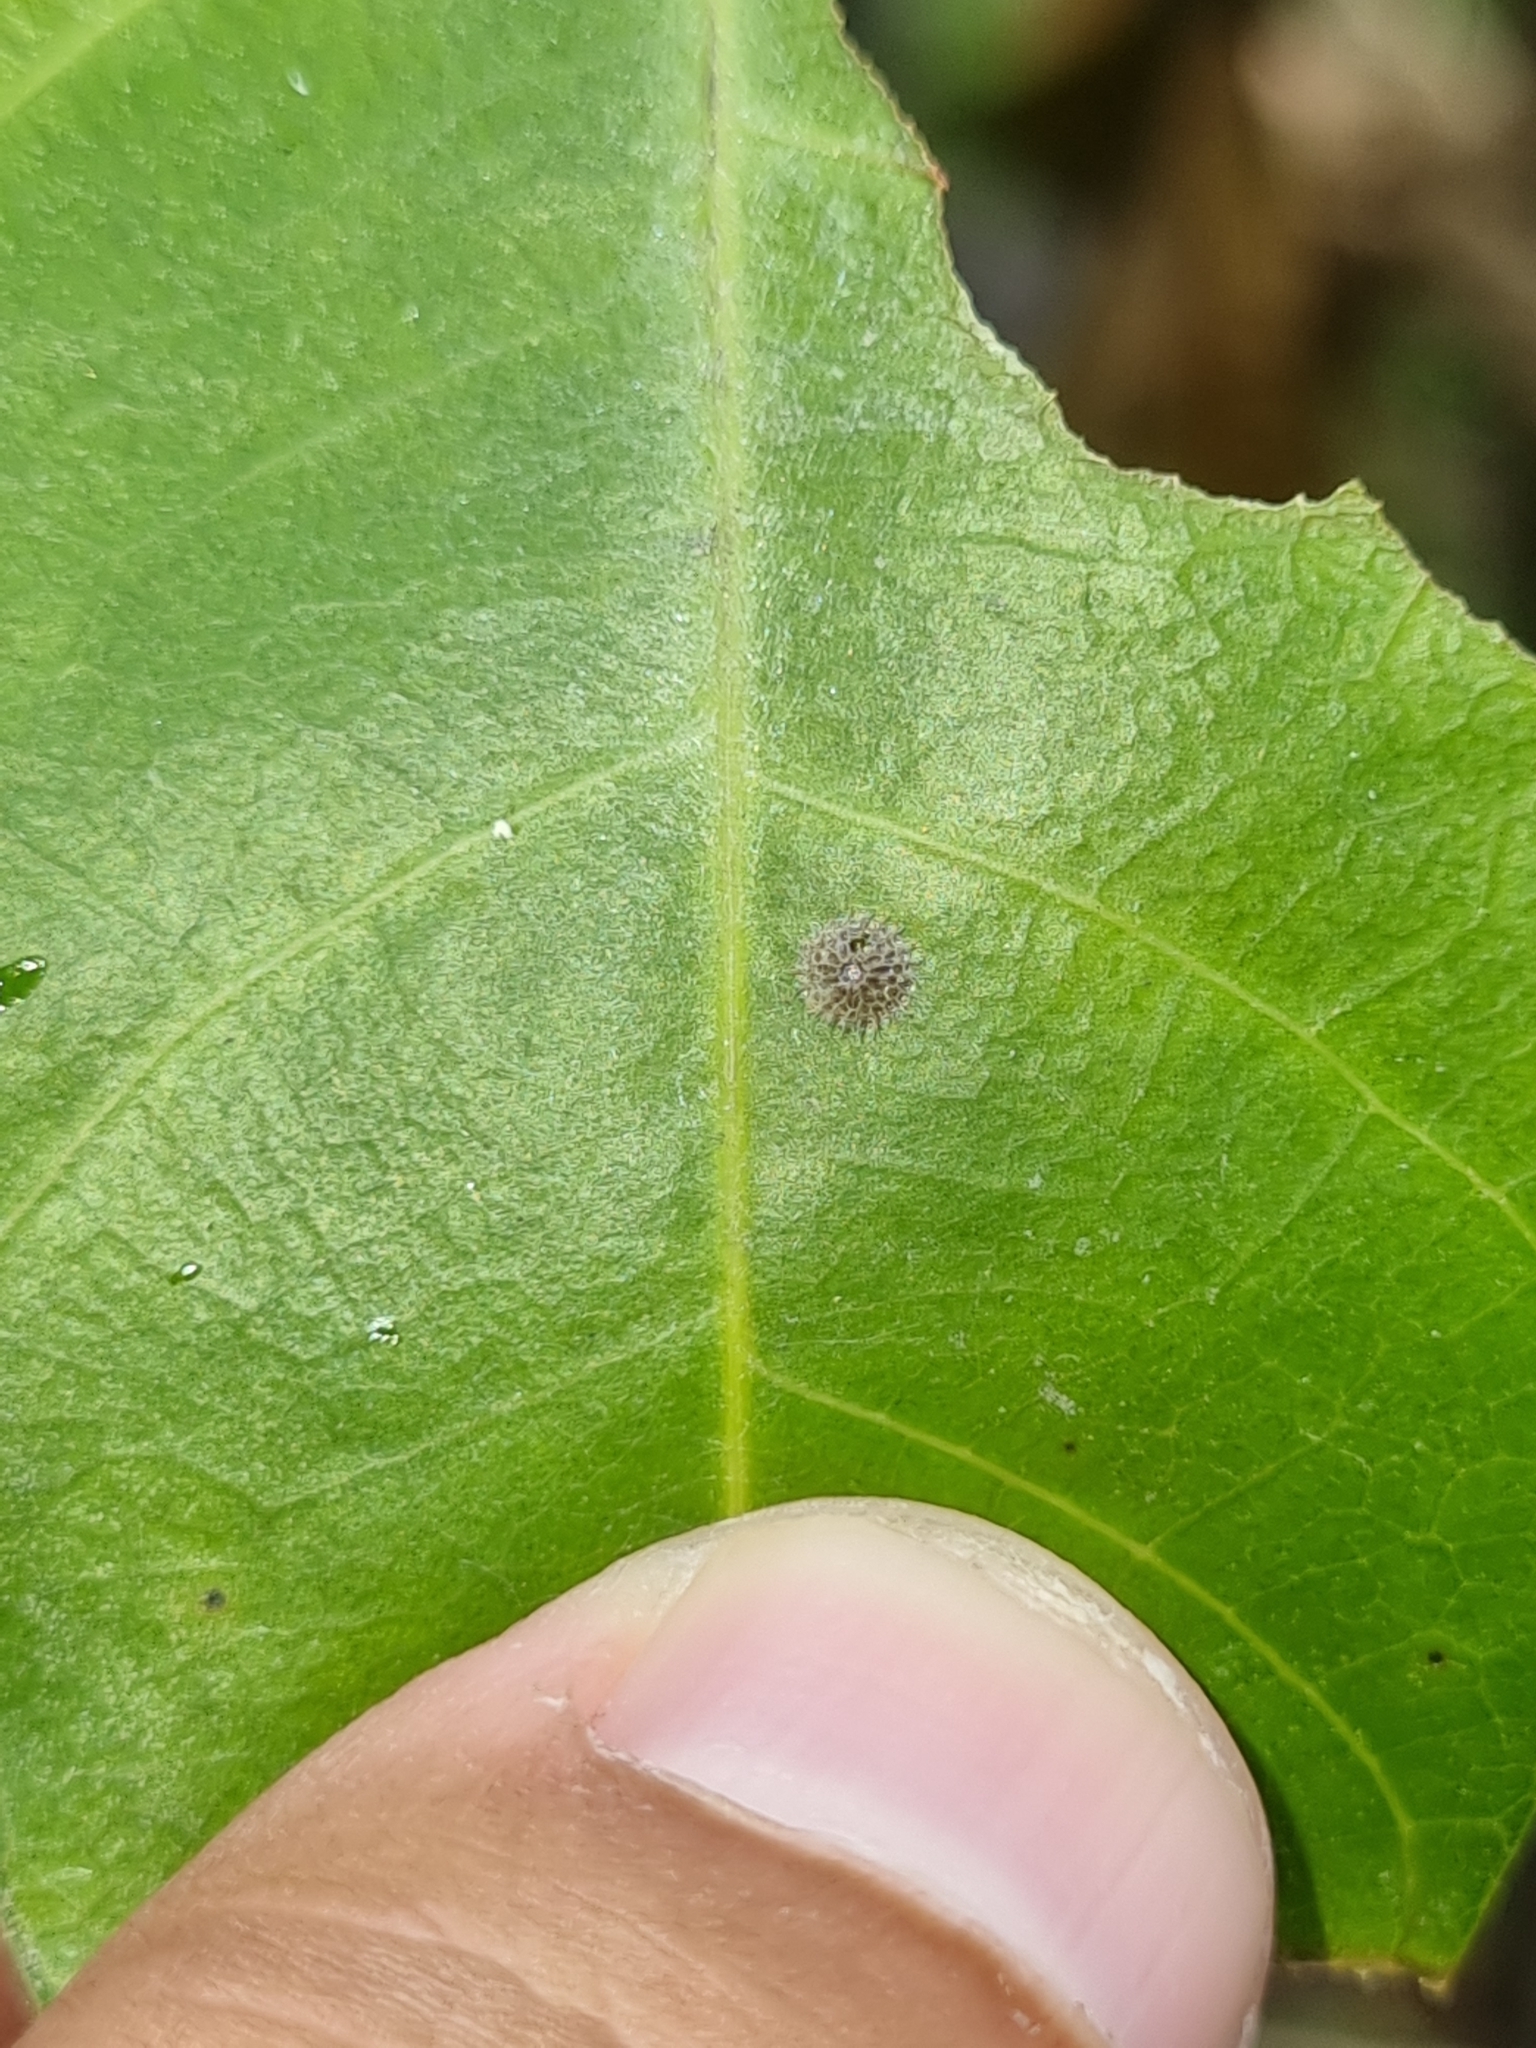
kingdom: Animalia
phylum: Arthropoda
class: Insecta
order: Lepidoptera
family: Nymphalidae
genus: Euthalia
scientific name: Euthalia aconthea
